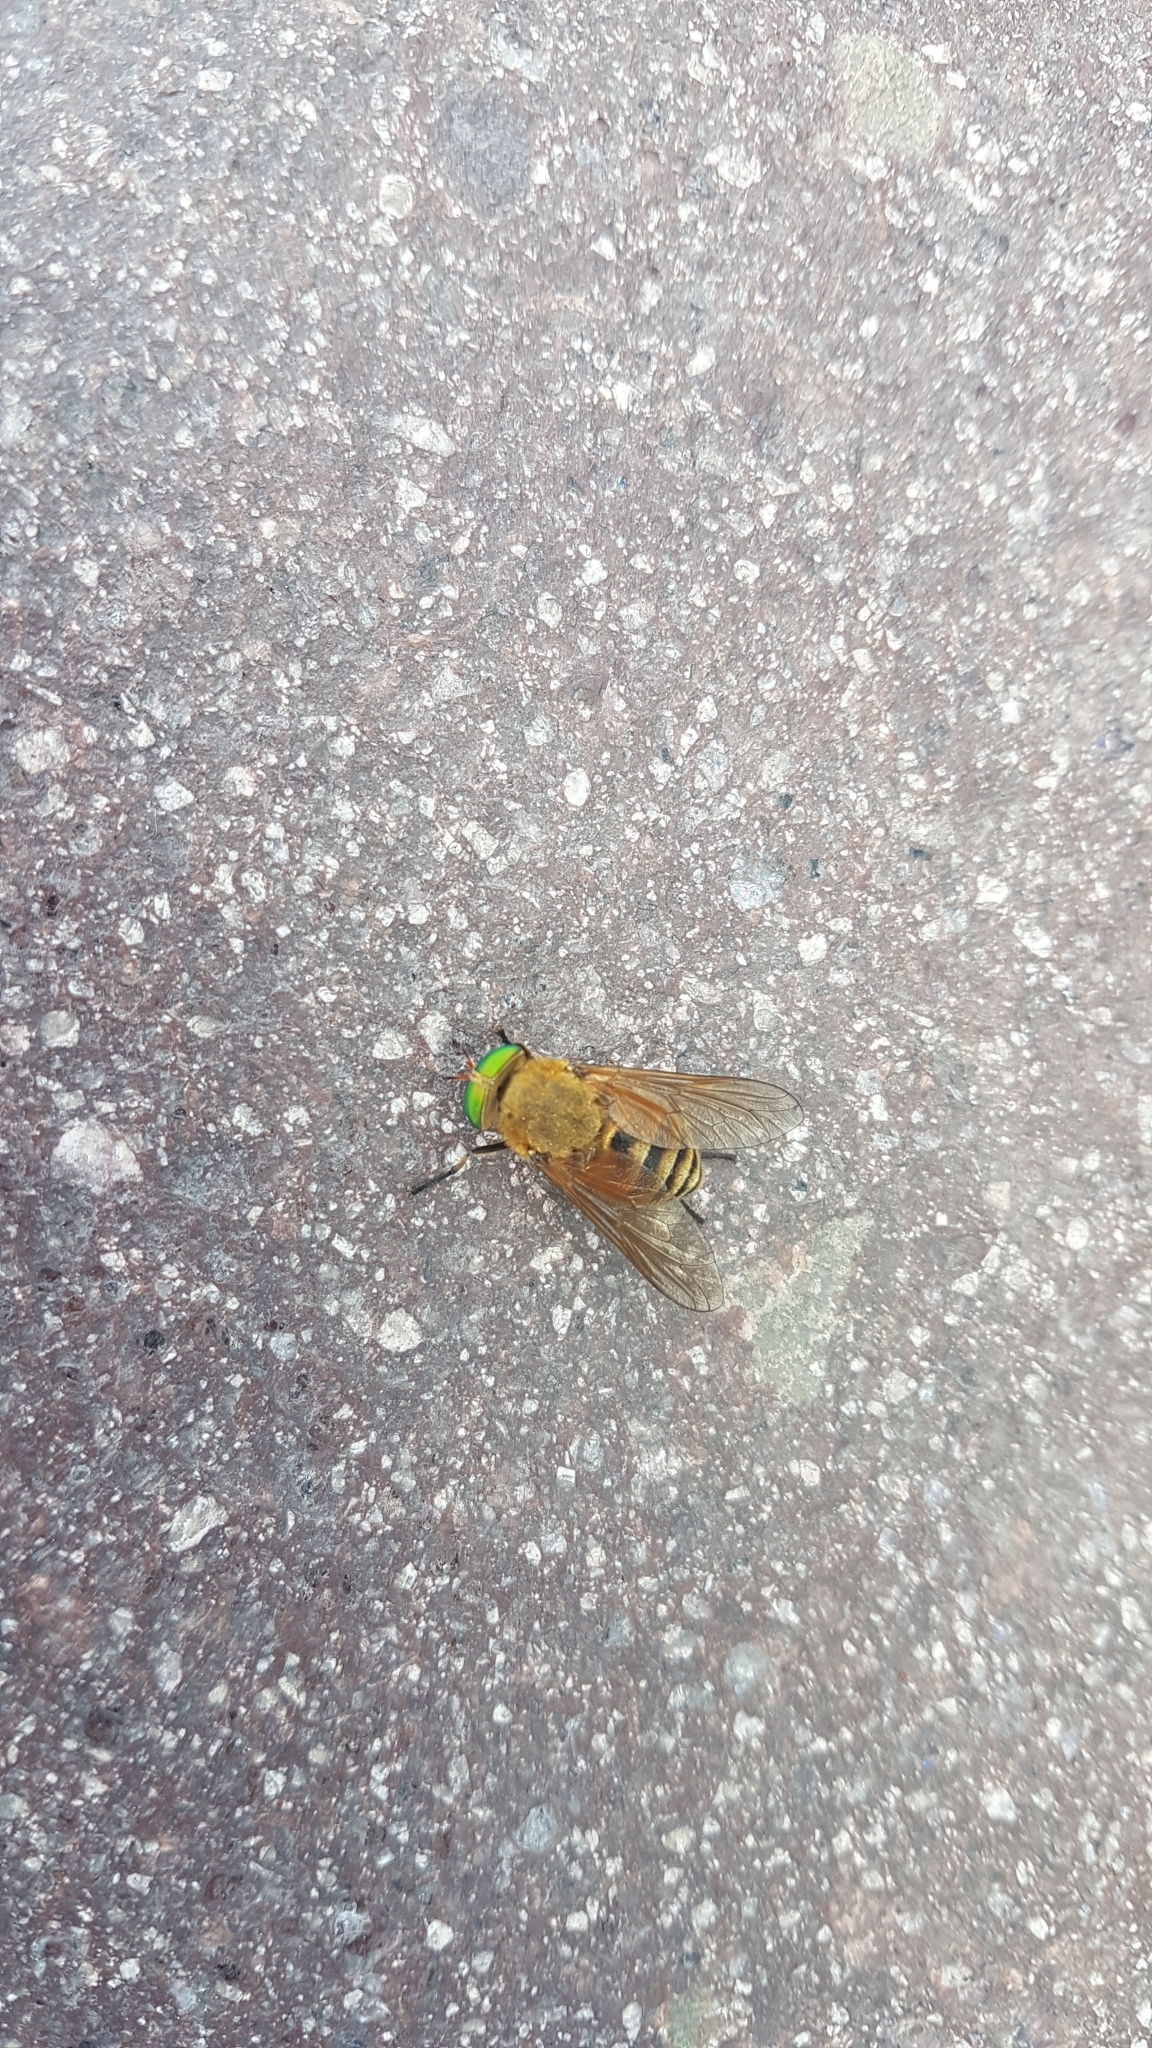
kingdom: Animalia
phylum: Arthropoda
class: Insecta
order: Diptera
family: Tabanidae
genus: Philipomyia
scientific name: Philipomyia aprica
